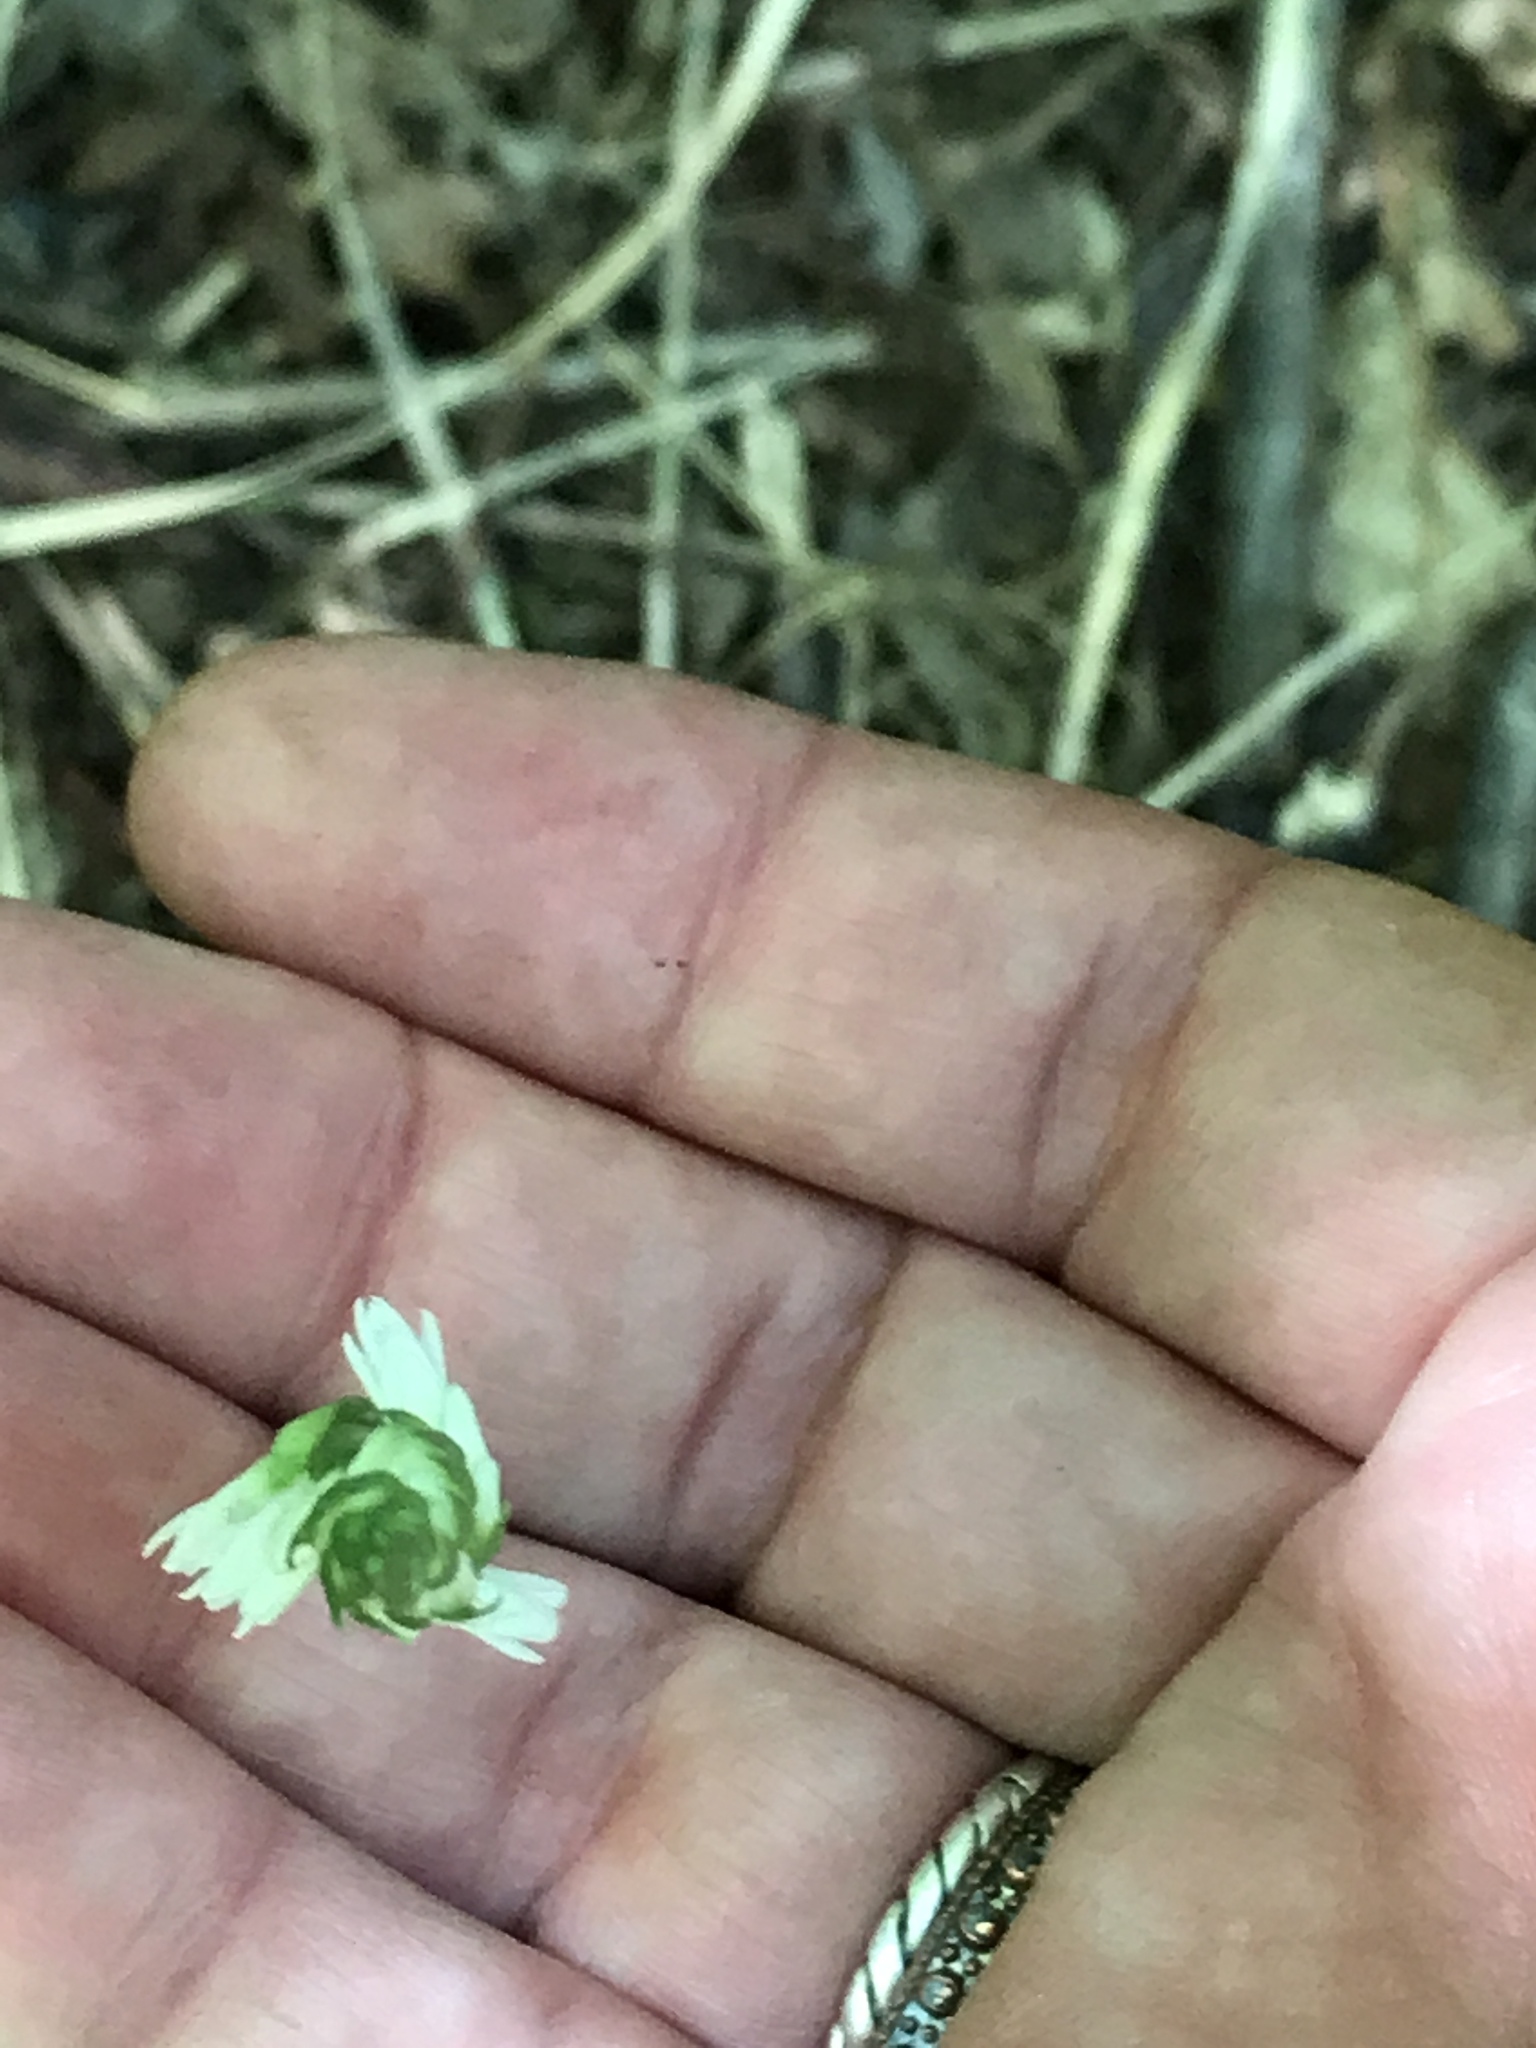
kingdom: Plantae
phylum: Tracheophyta
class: Liliopsida
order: Asparagales
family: Orchidaceae
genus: Spiranthes
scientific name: Spiranthes ovalis
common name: October ladies'-tresses
